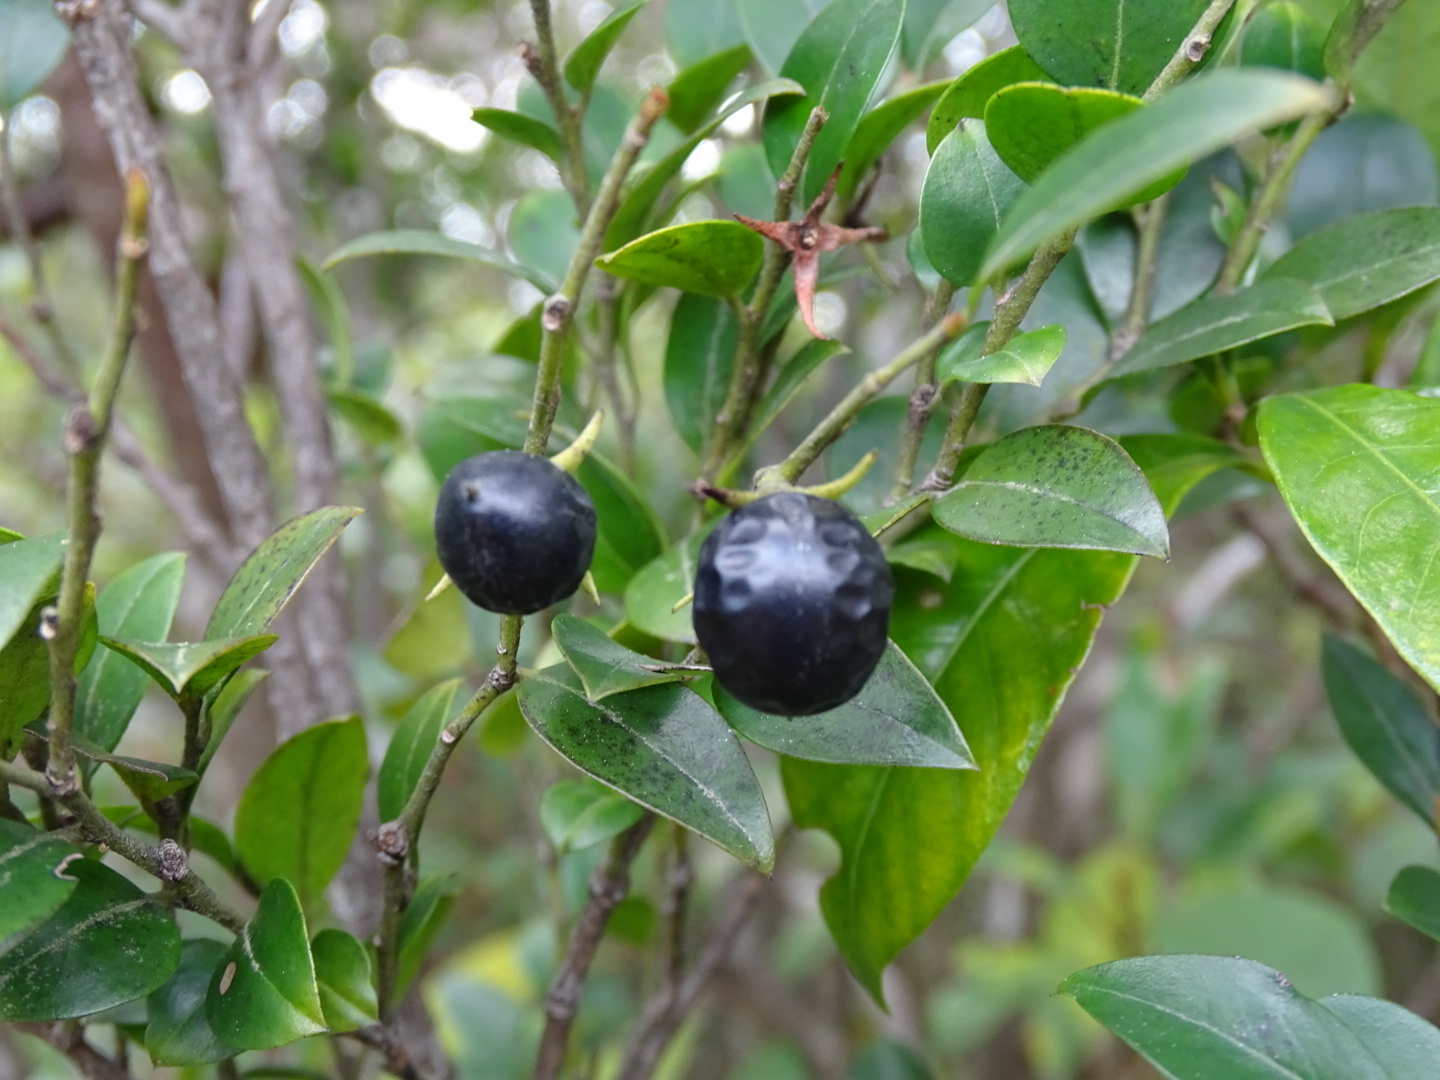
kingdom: Plantae
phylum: Tracheophyta
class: Magnoliopsida
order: Ericales
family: Ebenaceae
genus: Diospyros
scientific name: Diospyros vaccinioides
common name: Small persimmon
